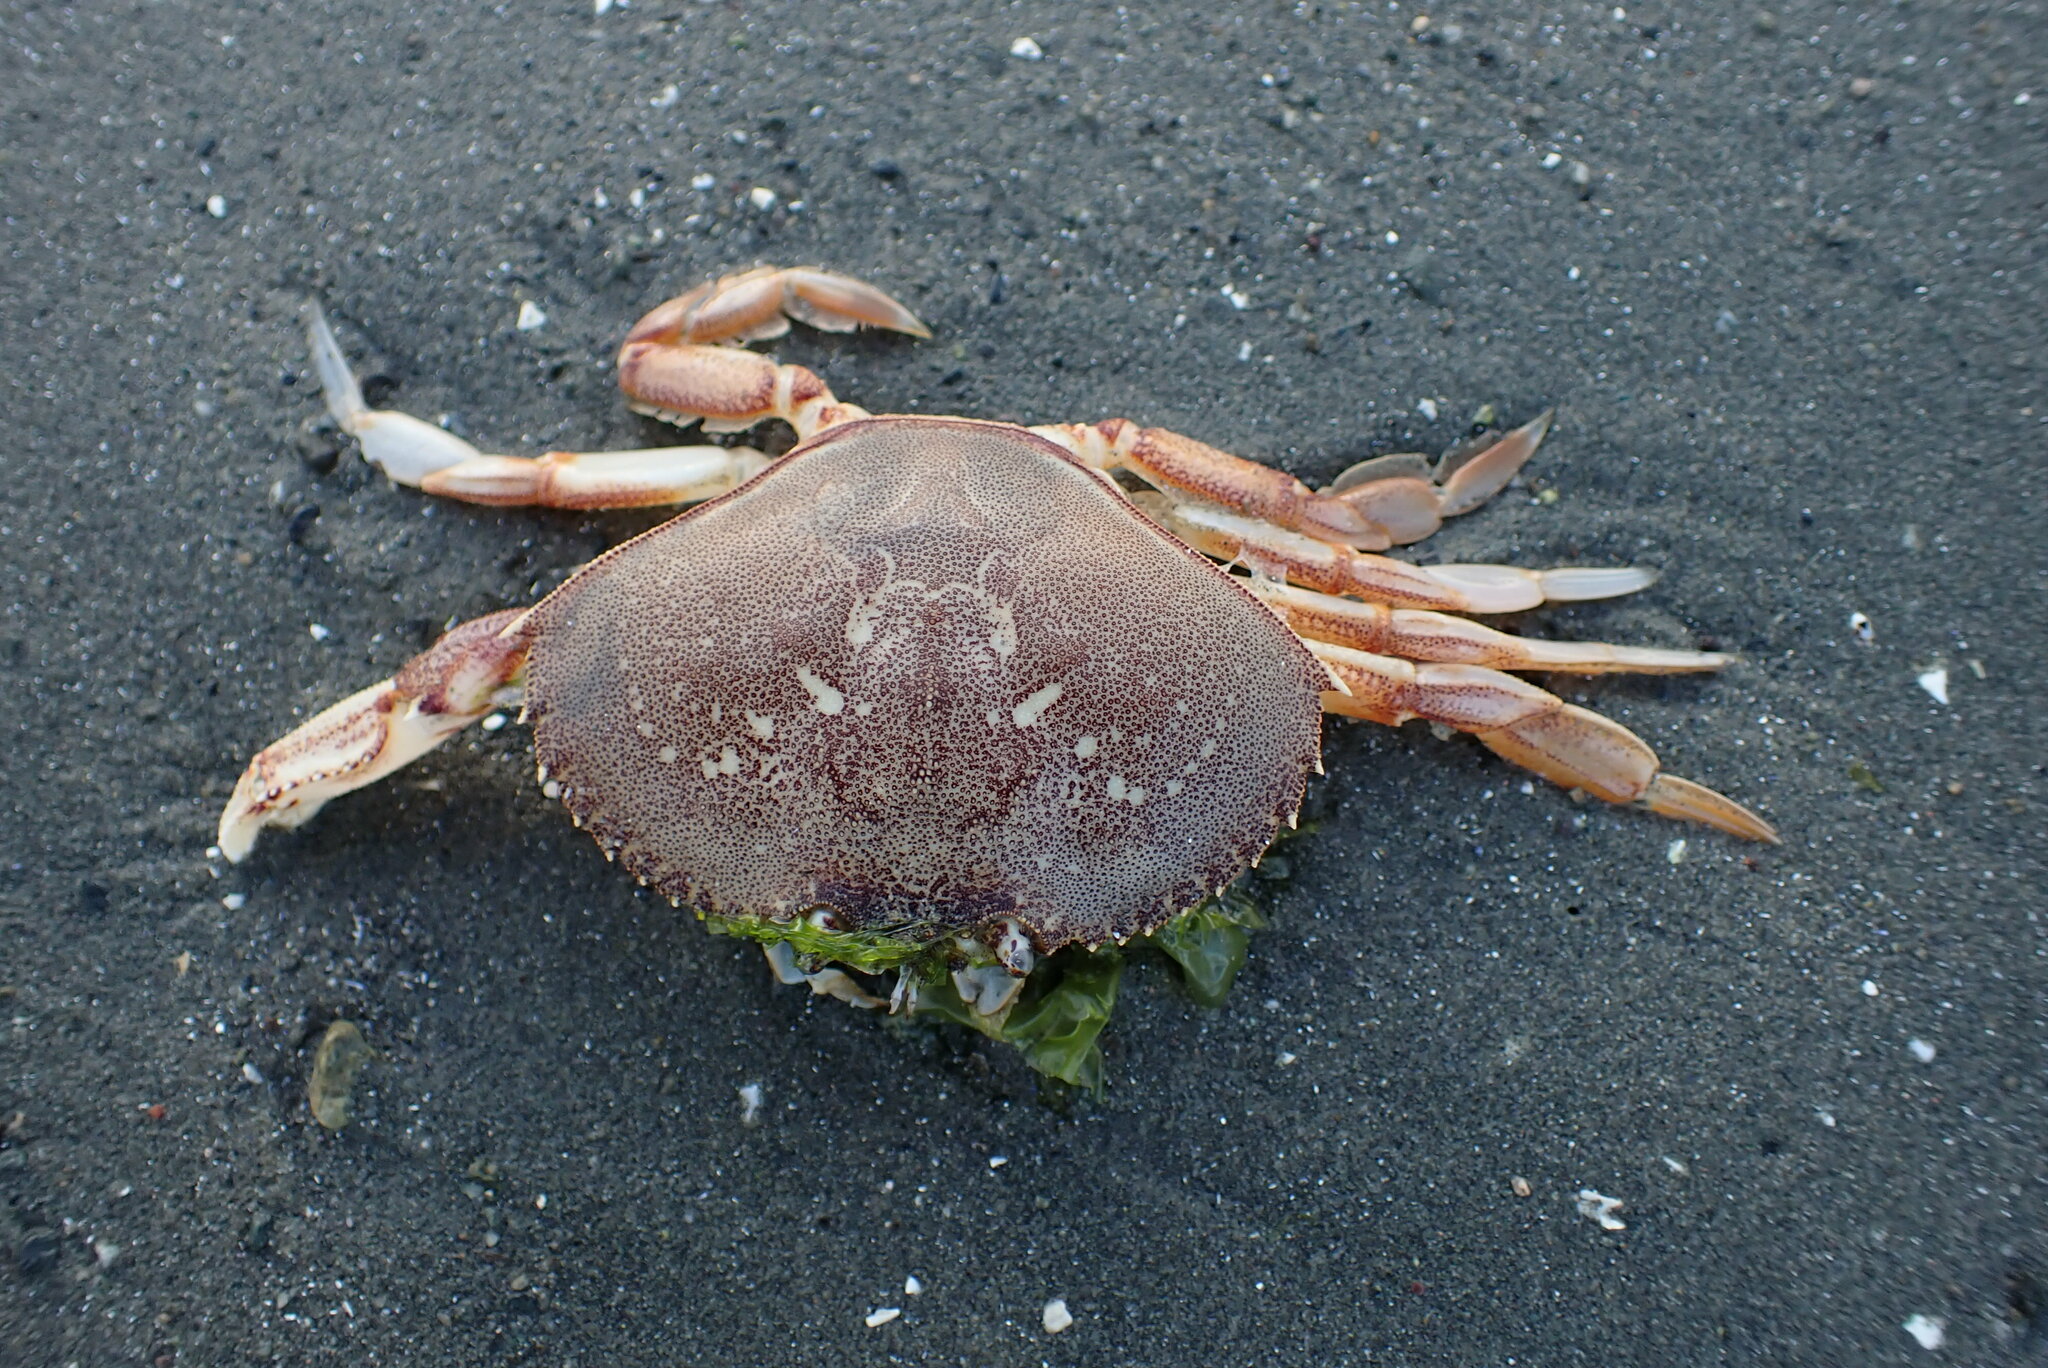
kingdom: Animalia
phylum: Arthropoda
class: Malacostraca
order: Decapoda
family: Cancridae
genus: Metacarcinus
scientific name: Metacarcinus magister
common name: Californian crab
